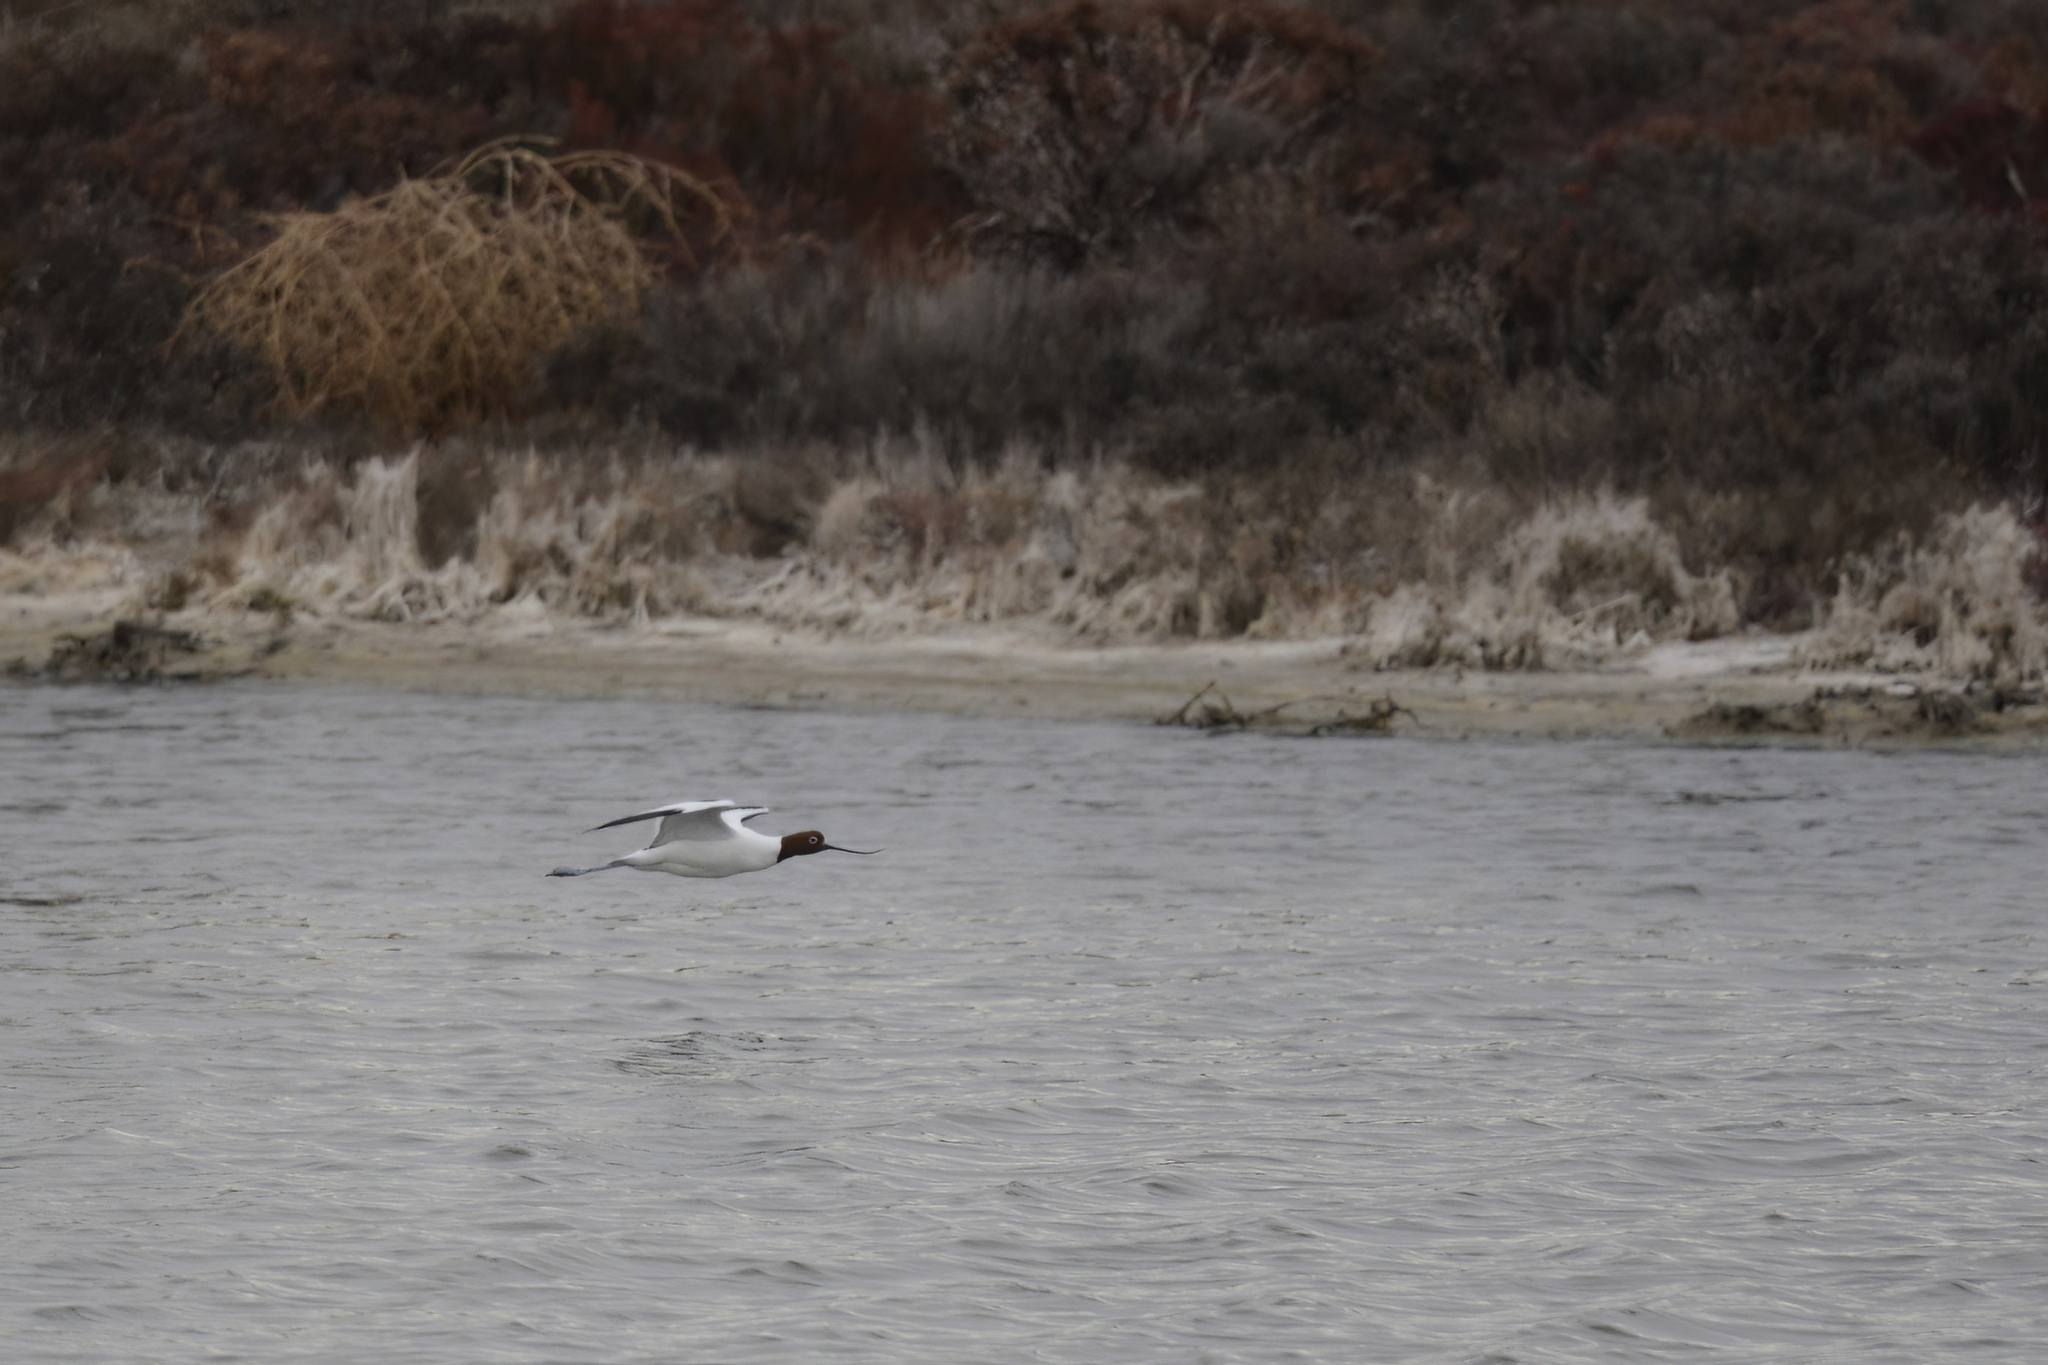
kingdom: Animalia
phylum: Chordata
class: Aves
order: Charadriiformes
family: Recurvirostridae
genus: Recurvirostra
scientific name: Recurvirostra novaehollandiae
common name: Red-necked avocet
